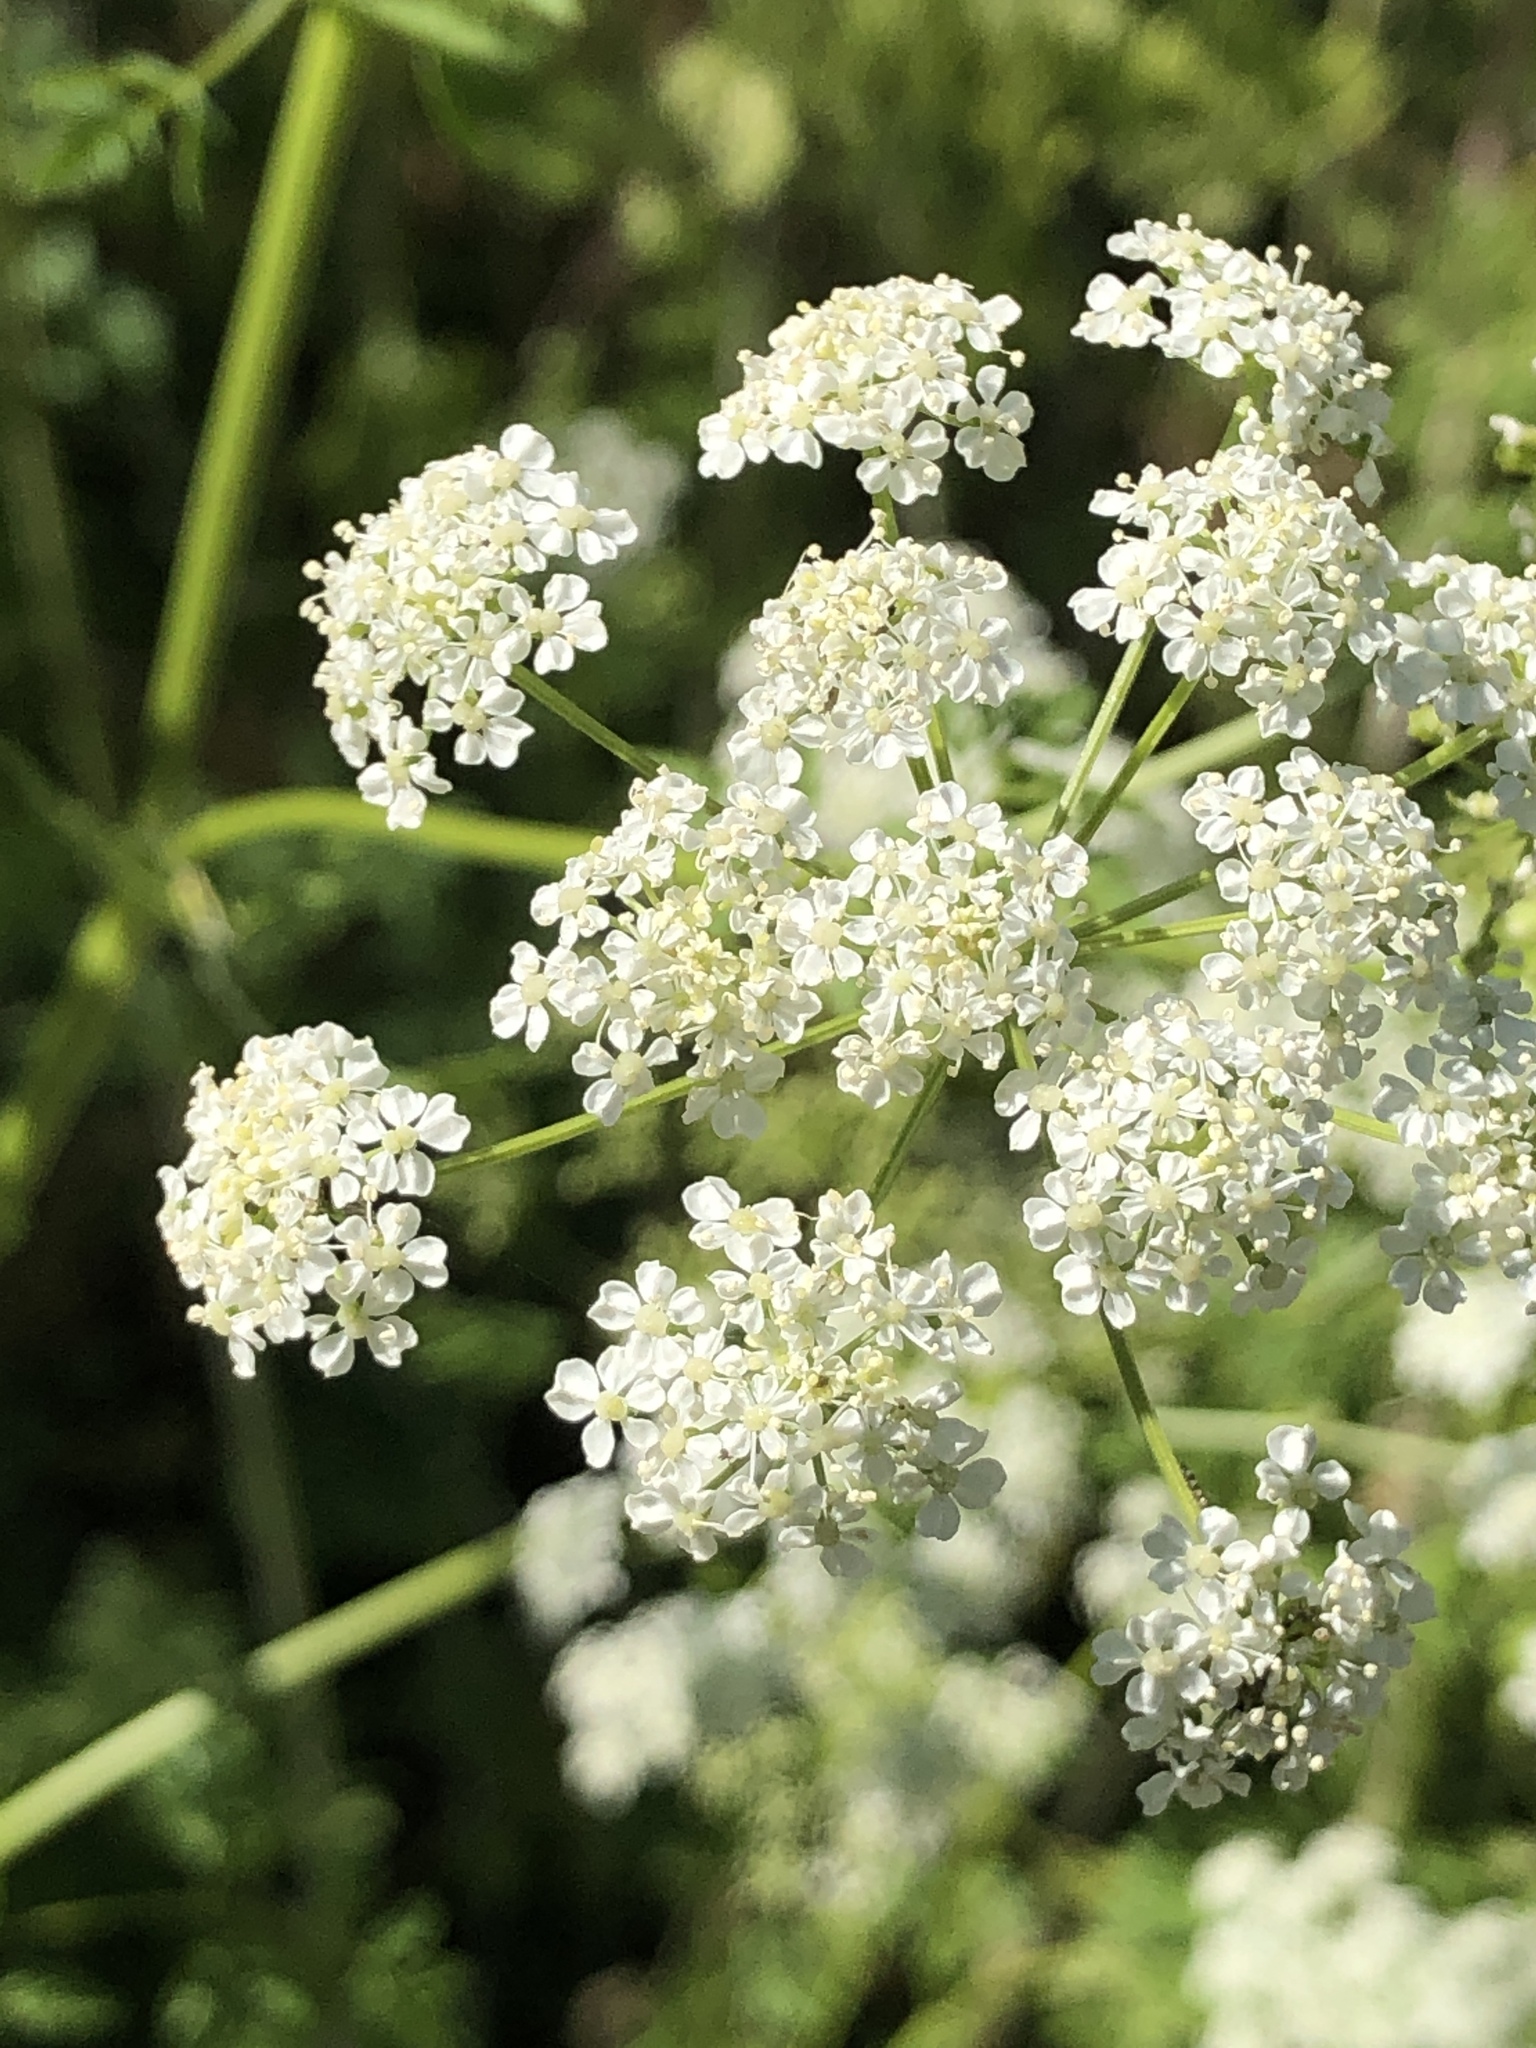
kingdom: Plantae
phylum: Tracheophyta
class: Magnoliopsida
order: Apiales
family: Apiaceae
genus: Conium
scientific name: Conium maculatum
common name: Hemlock
